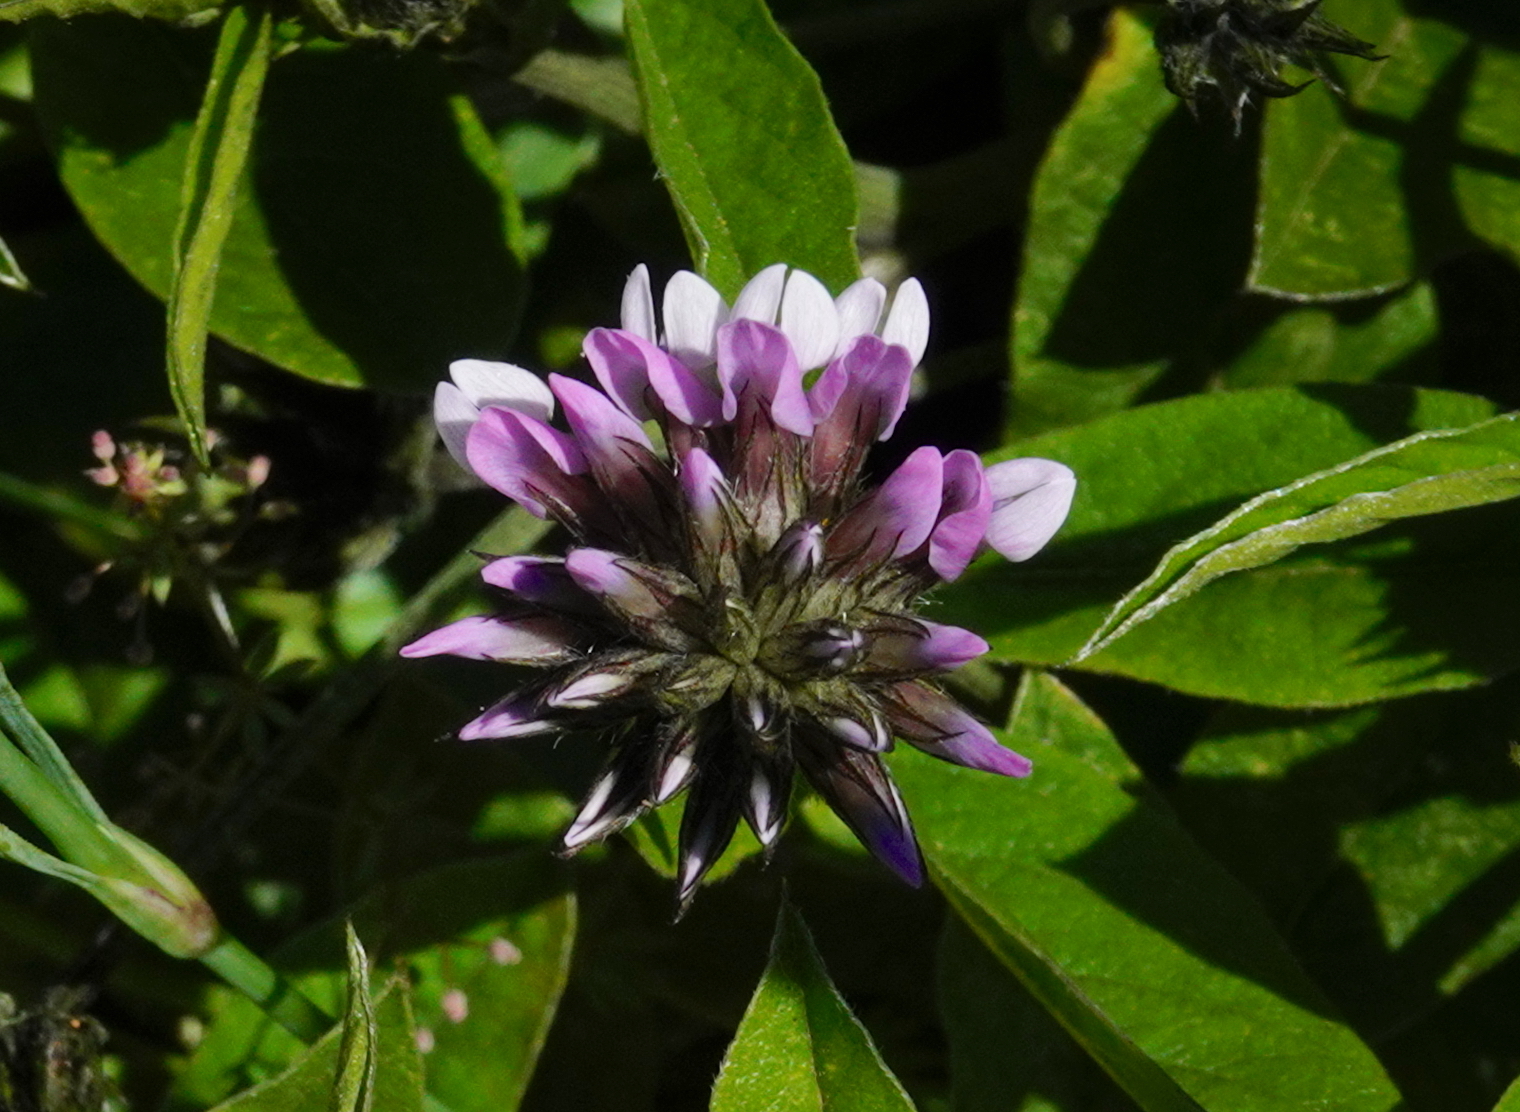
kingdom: Plantae
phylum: Tracheophyta
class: Magnoliopsida
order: Fabales
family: Fabaceae
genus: Bituminaria
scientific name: Bituminaria bituminosa
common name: Arabian pea
